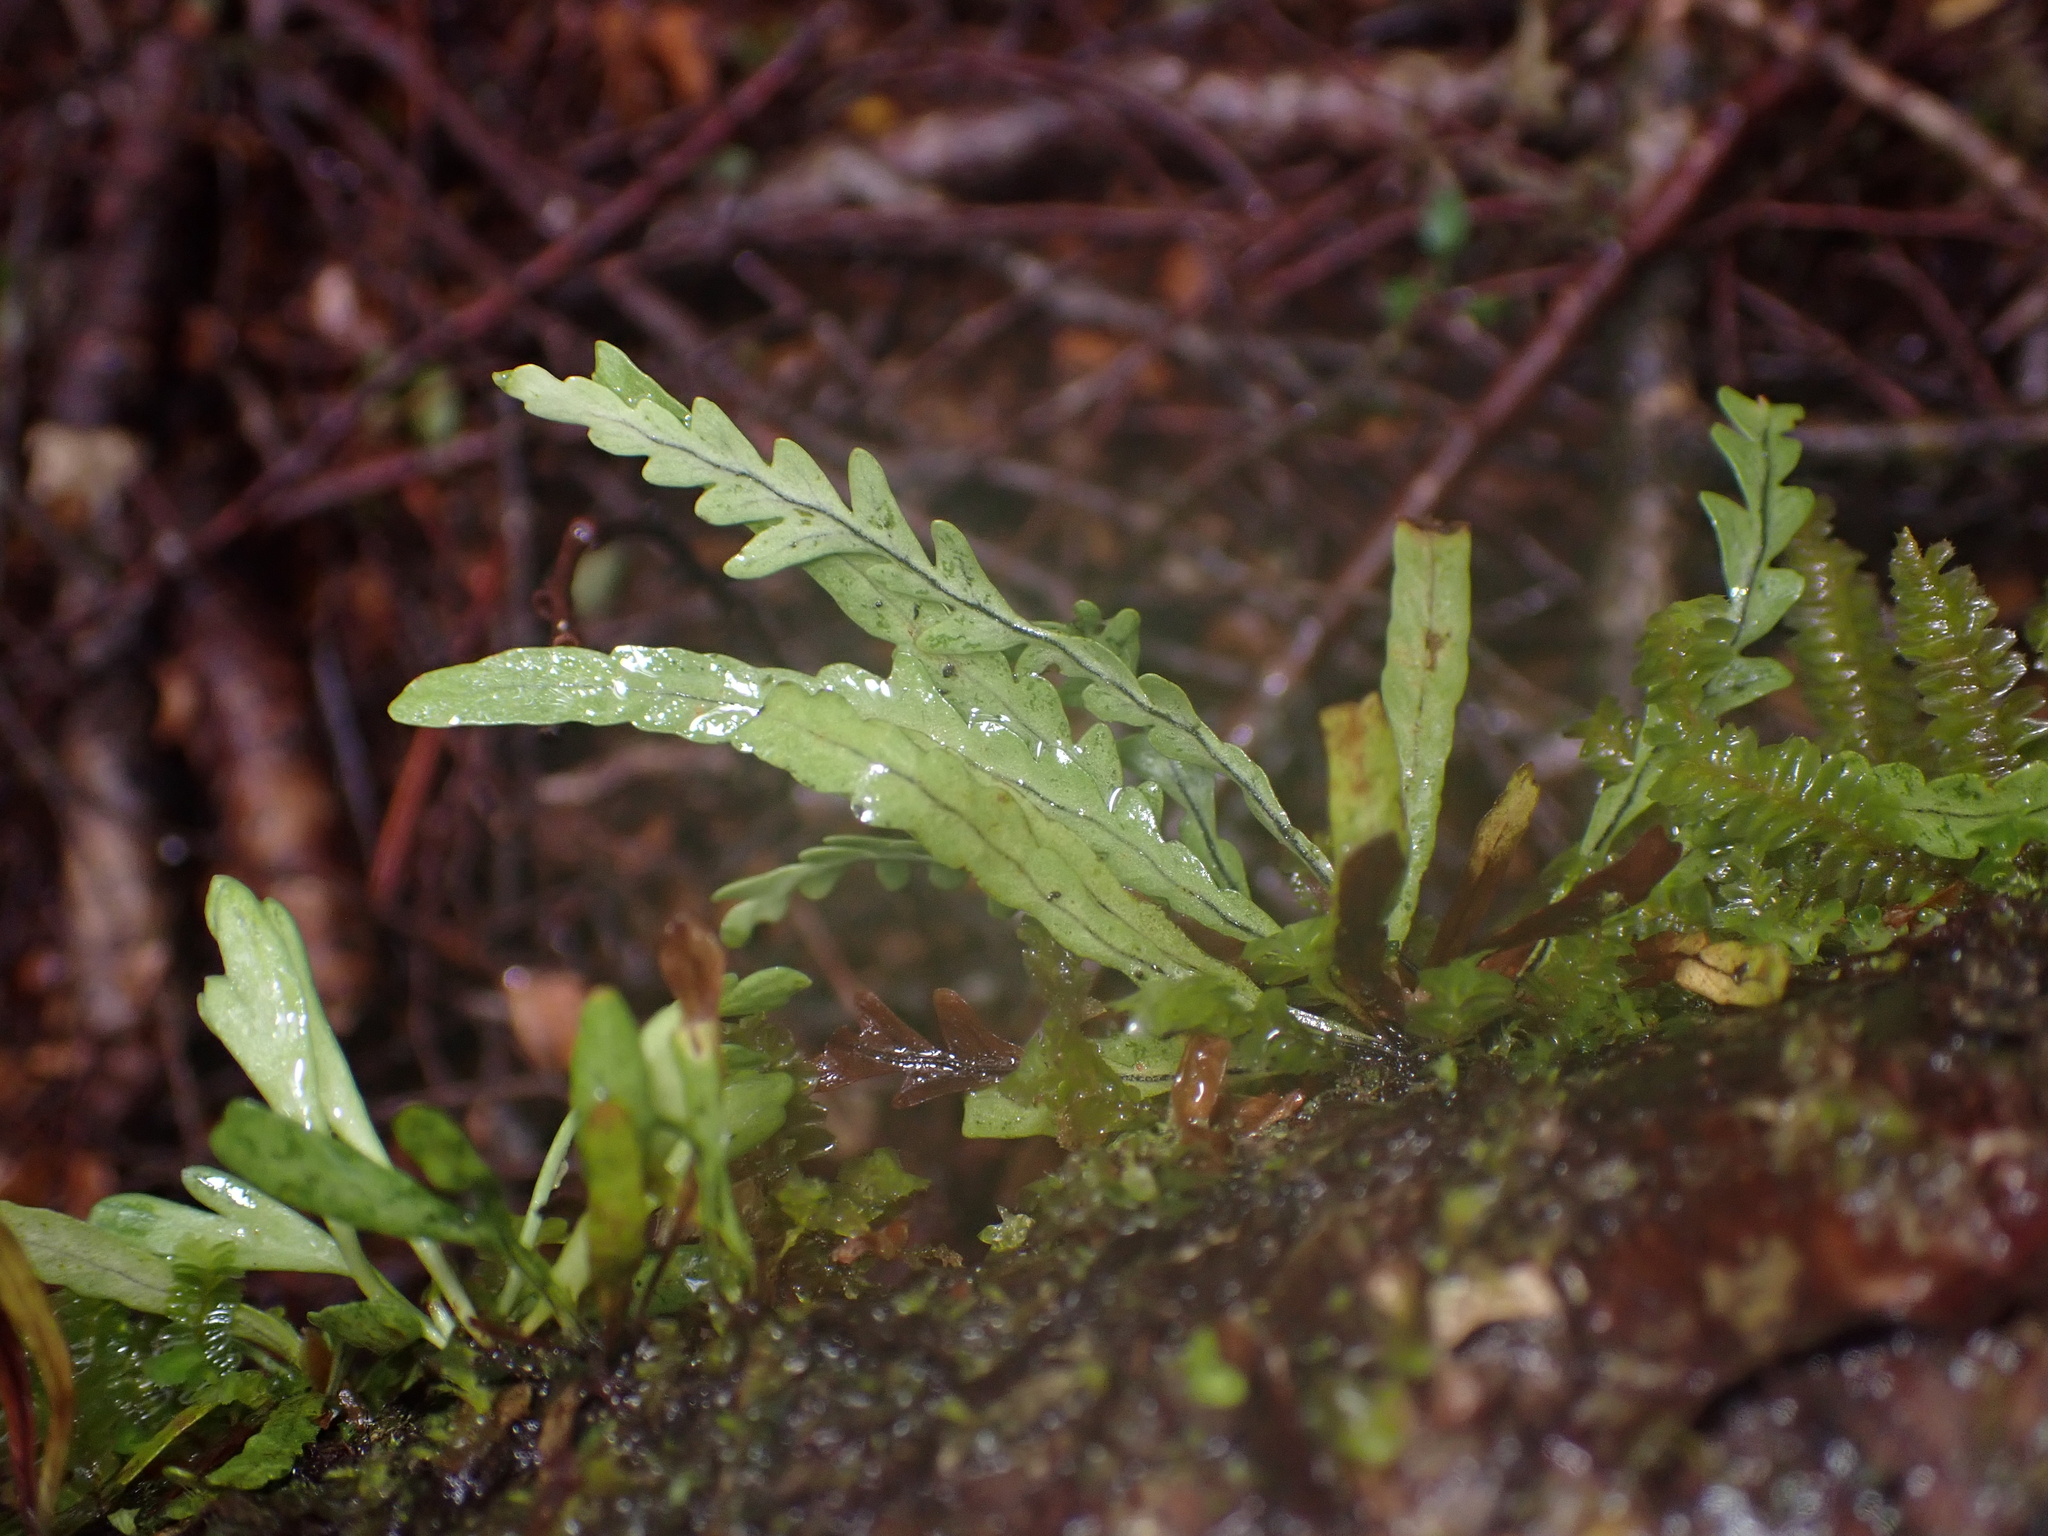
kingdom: Plantae
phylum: Tracheophyta
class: Polypodiopsida
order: Polypodiales
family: Polypodiaceae
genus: Notogrammitis
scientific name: Notogrammitis heterophylla
